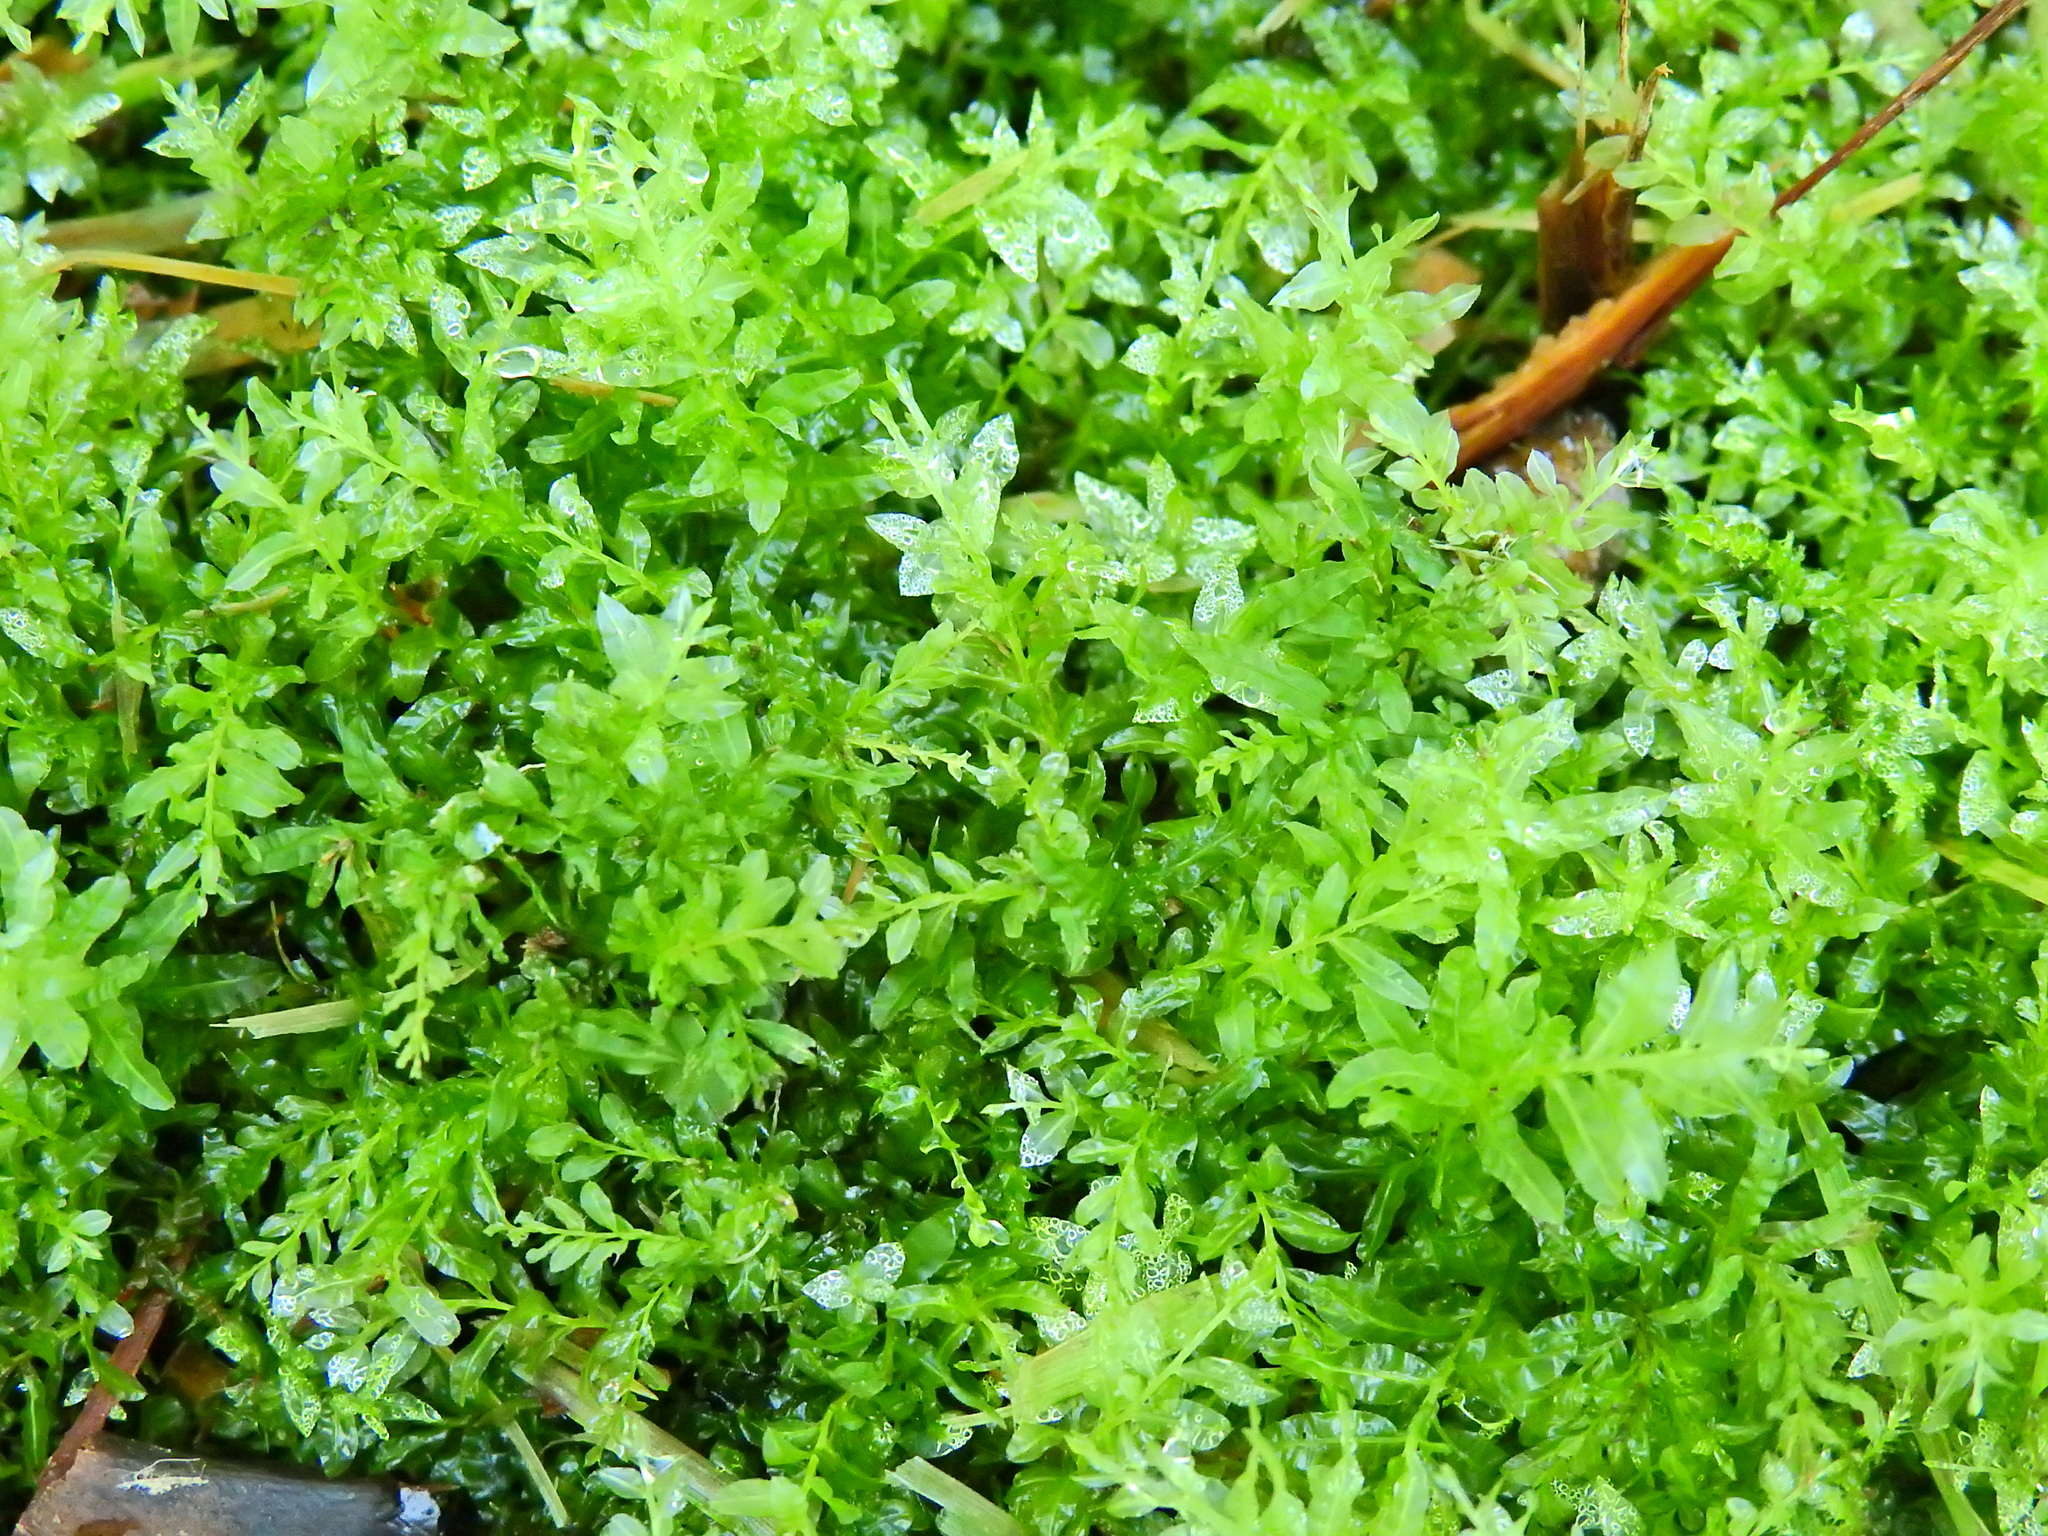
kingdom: Plantae
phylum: Bryophyta
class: Bryopsida
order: Bryales
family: Mniaceae
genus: Plagiomnium
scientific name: Plagiomnium undulatum
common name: Hart's-tongue thyme-moss
